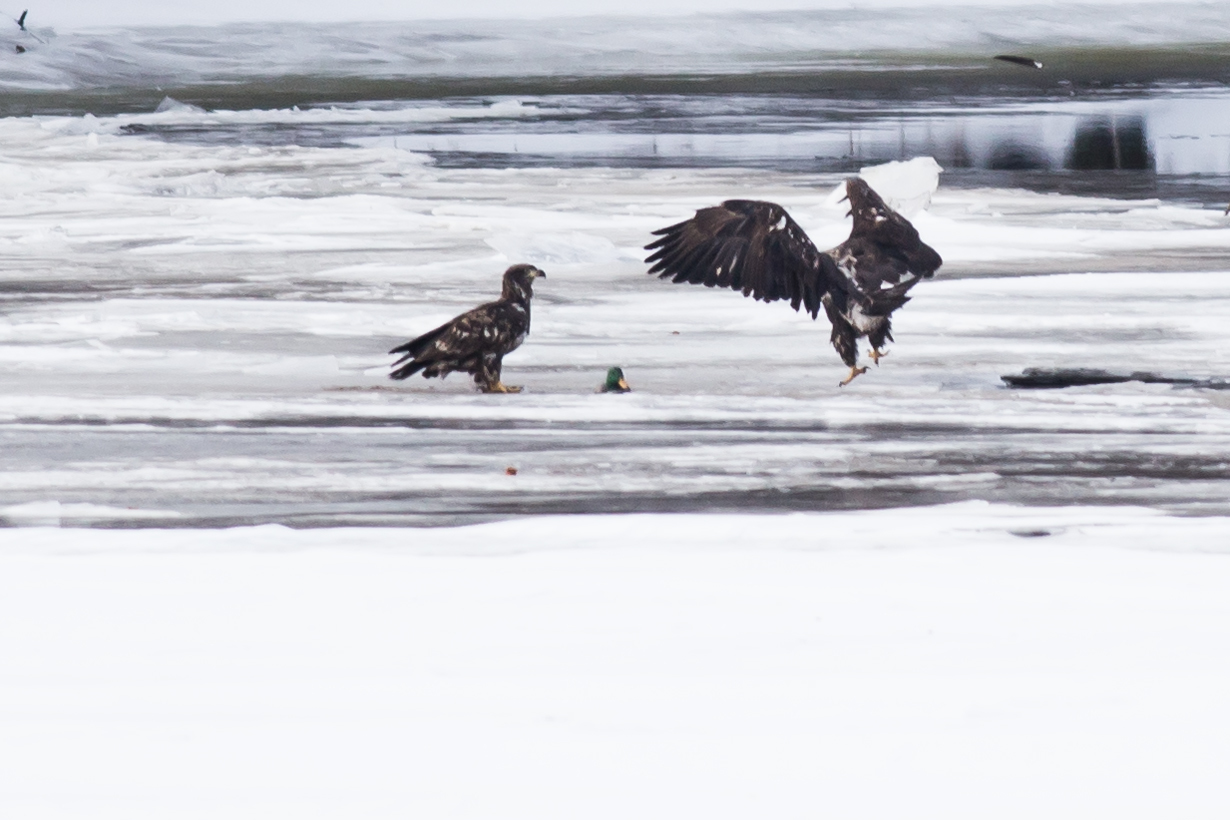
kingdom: Animalia
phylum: Chordata
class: Aves
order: Accipitriformes
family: Accipitridae
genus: Haliaeetus
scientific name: Haliaeetus leucocephalus
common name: Bald eagle
